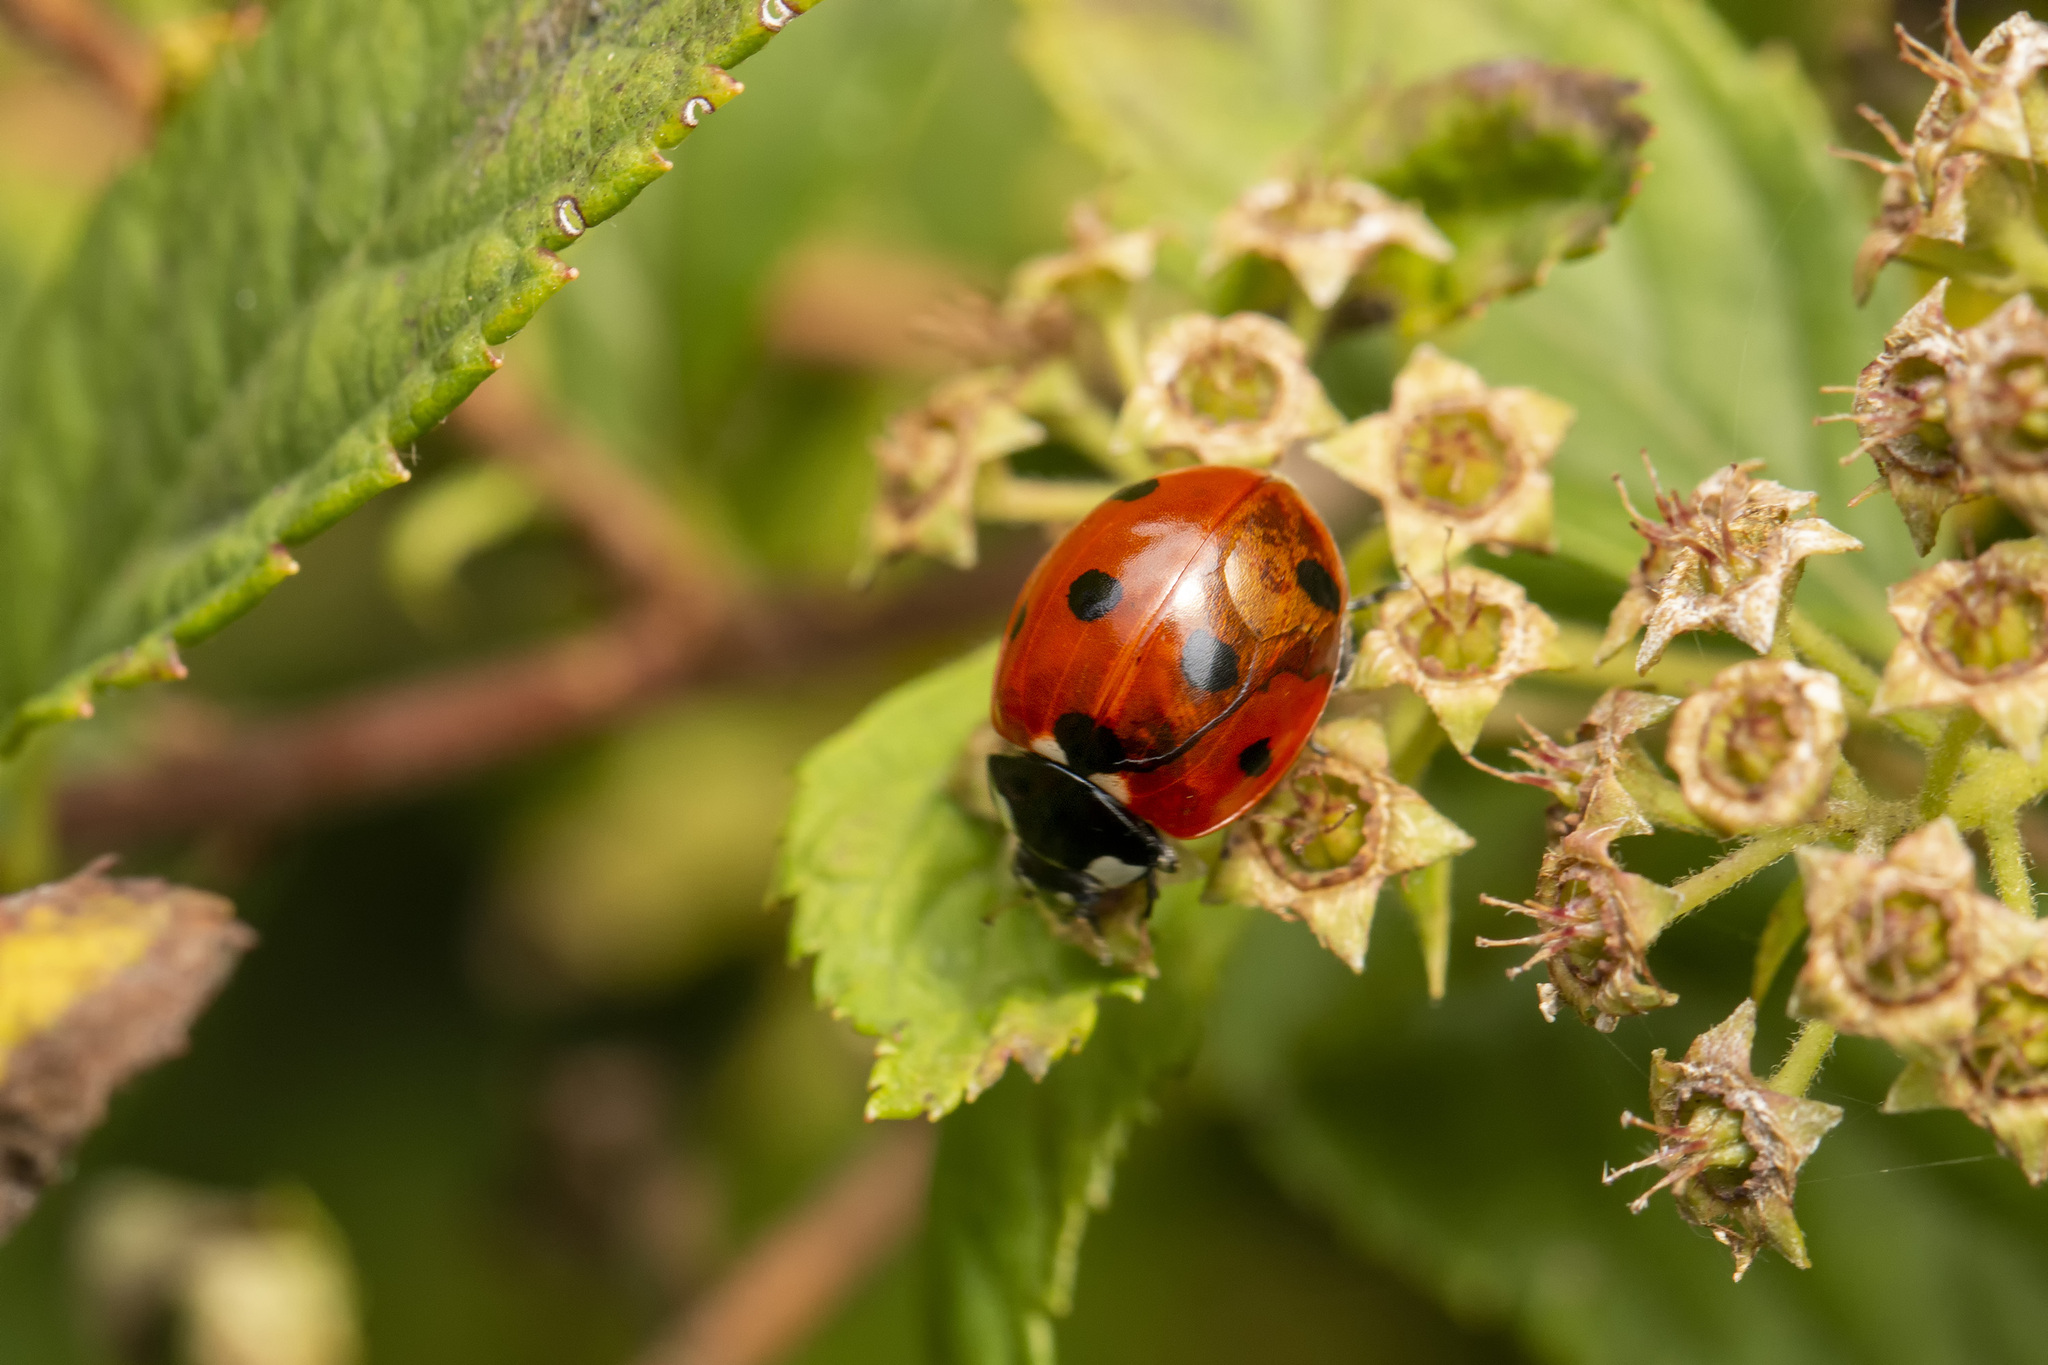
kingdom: Animalia
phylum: Arthropoda
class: Insecta
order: Coleoptera
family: Coccinellidae
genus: Coccinella
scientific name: Coccinella septempunctata
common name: Sevenspotted lady beetle
